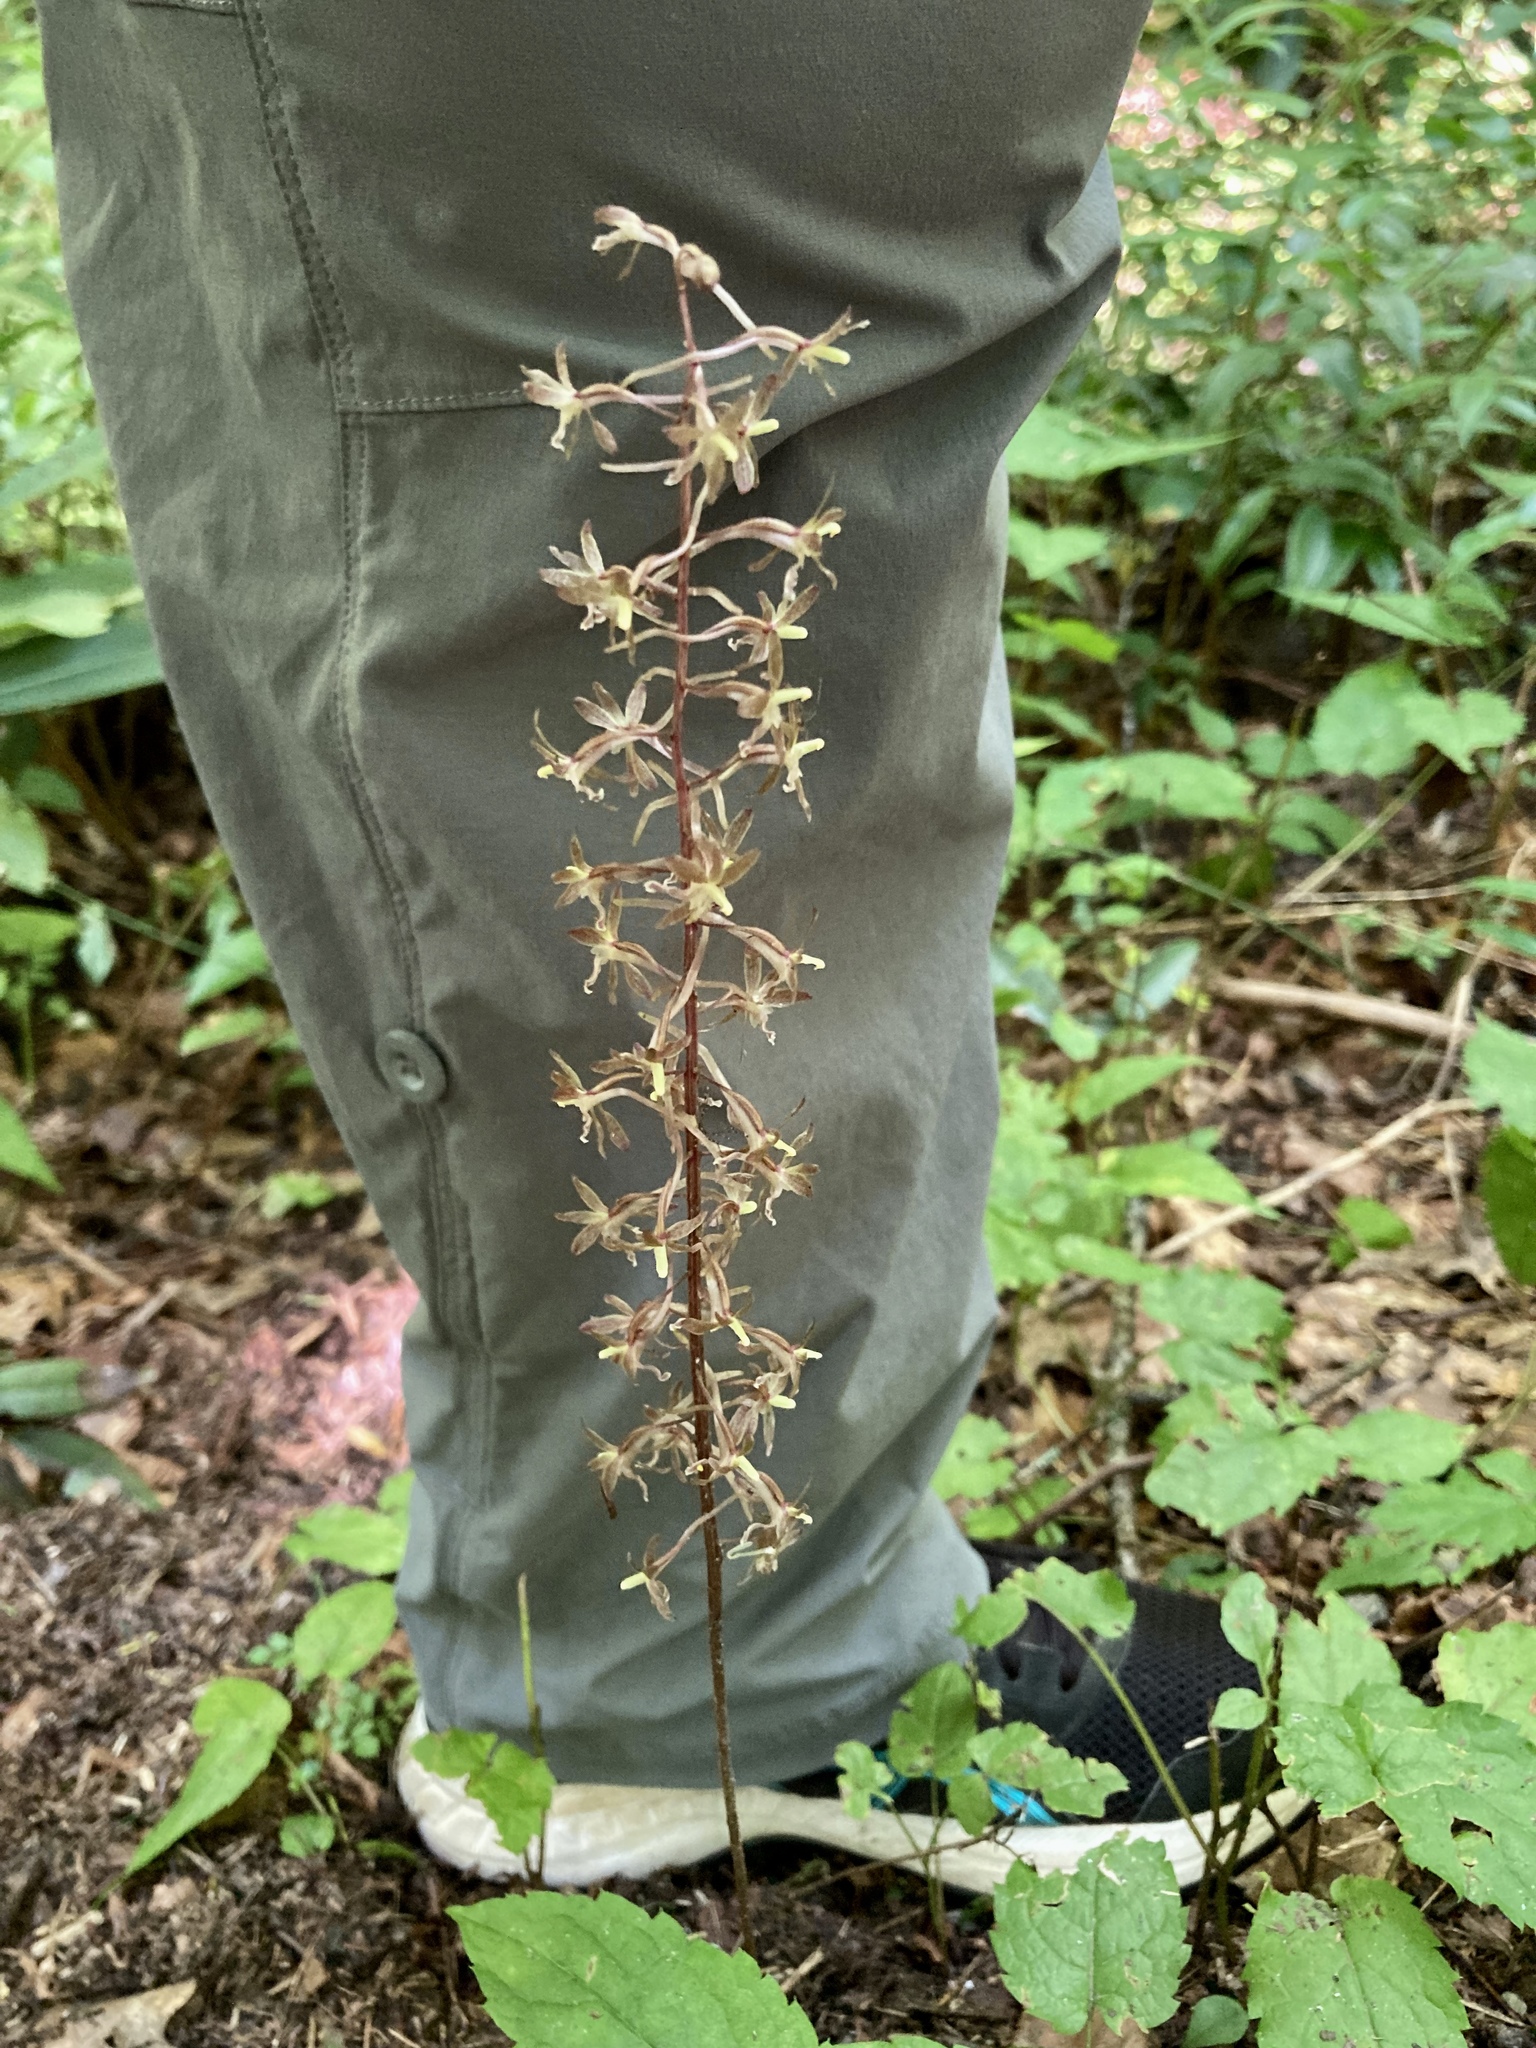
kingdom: Plantae
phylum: Tracheophyta
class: Liliopsida
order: Asparagales
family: Orchidaceae
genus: Tipularia
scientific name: Tipularia discolor
